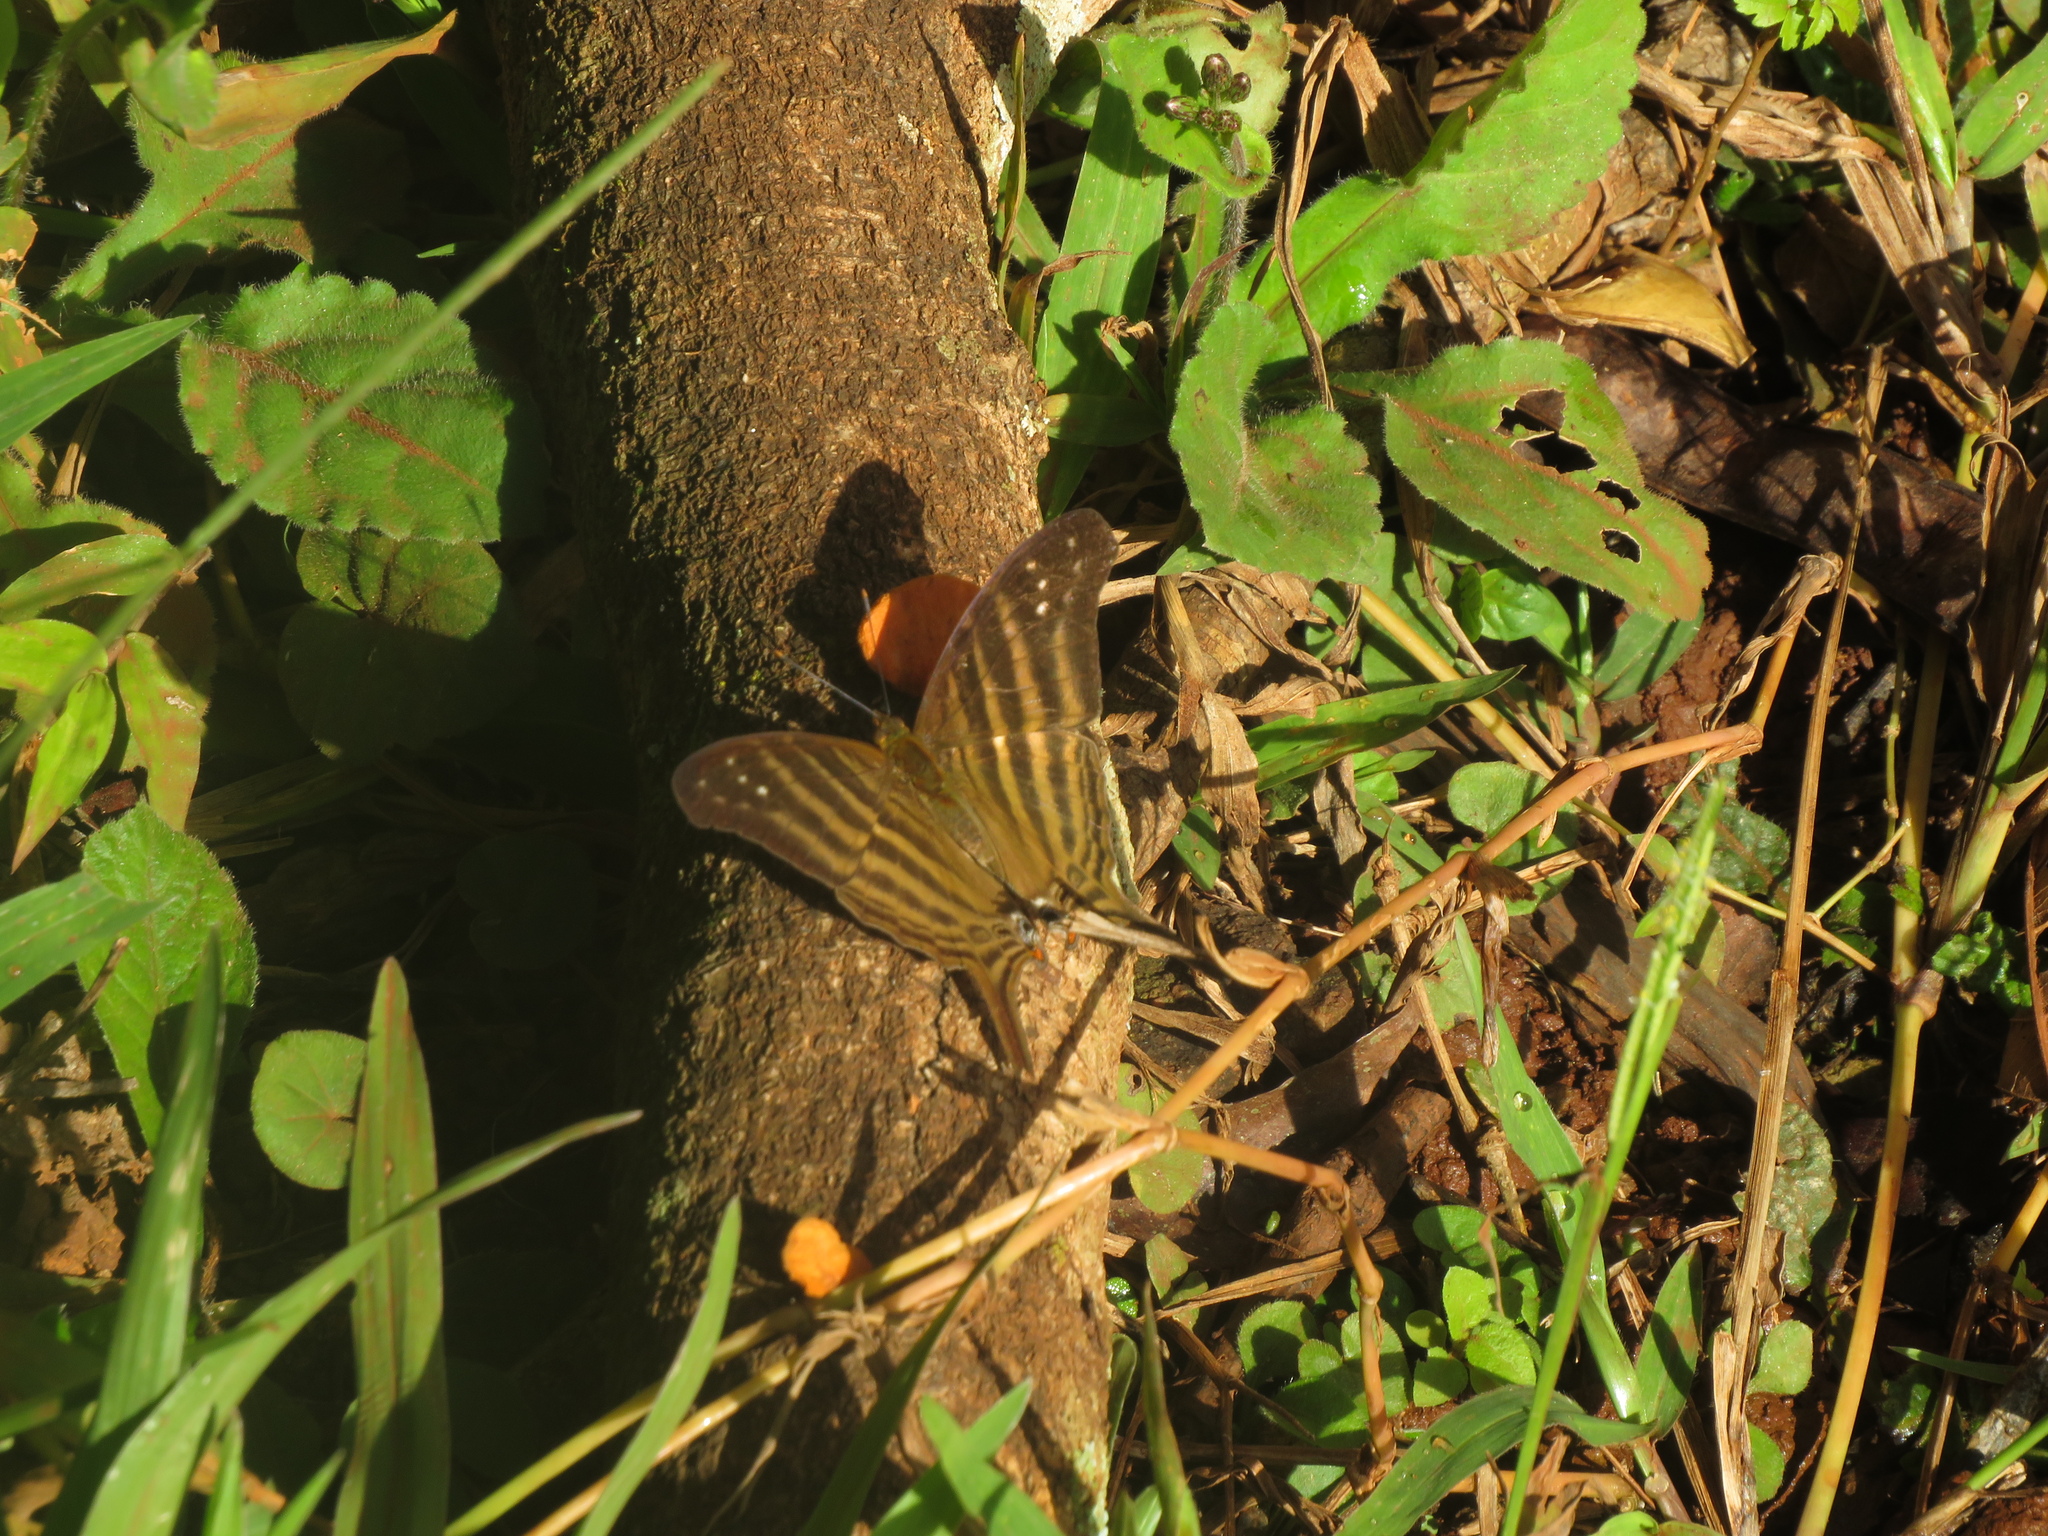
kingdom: Animalia
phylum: Arthropoda
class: Insecta
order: Lepidoptera
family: Nymphalidae
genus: Marpesia
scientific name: Marpesia chiron
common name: Many-banded daggerwing
